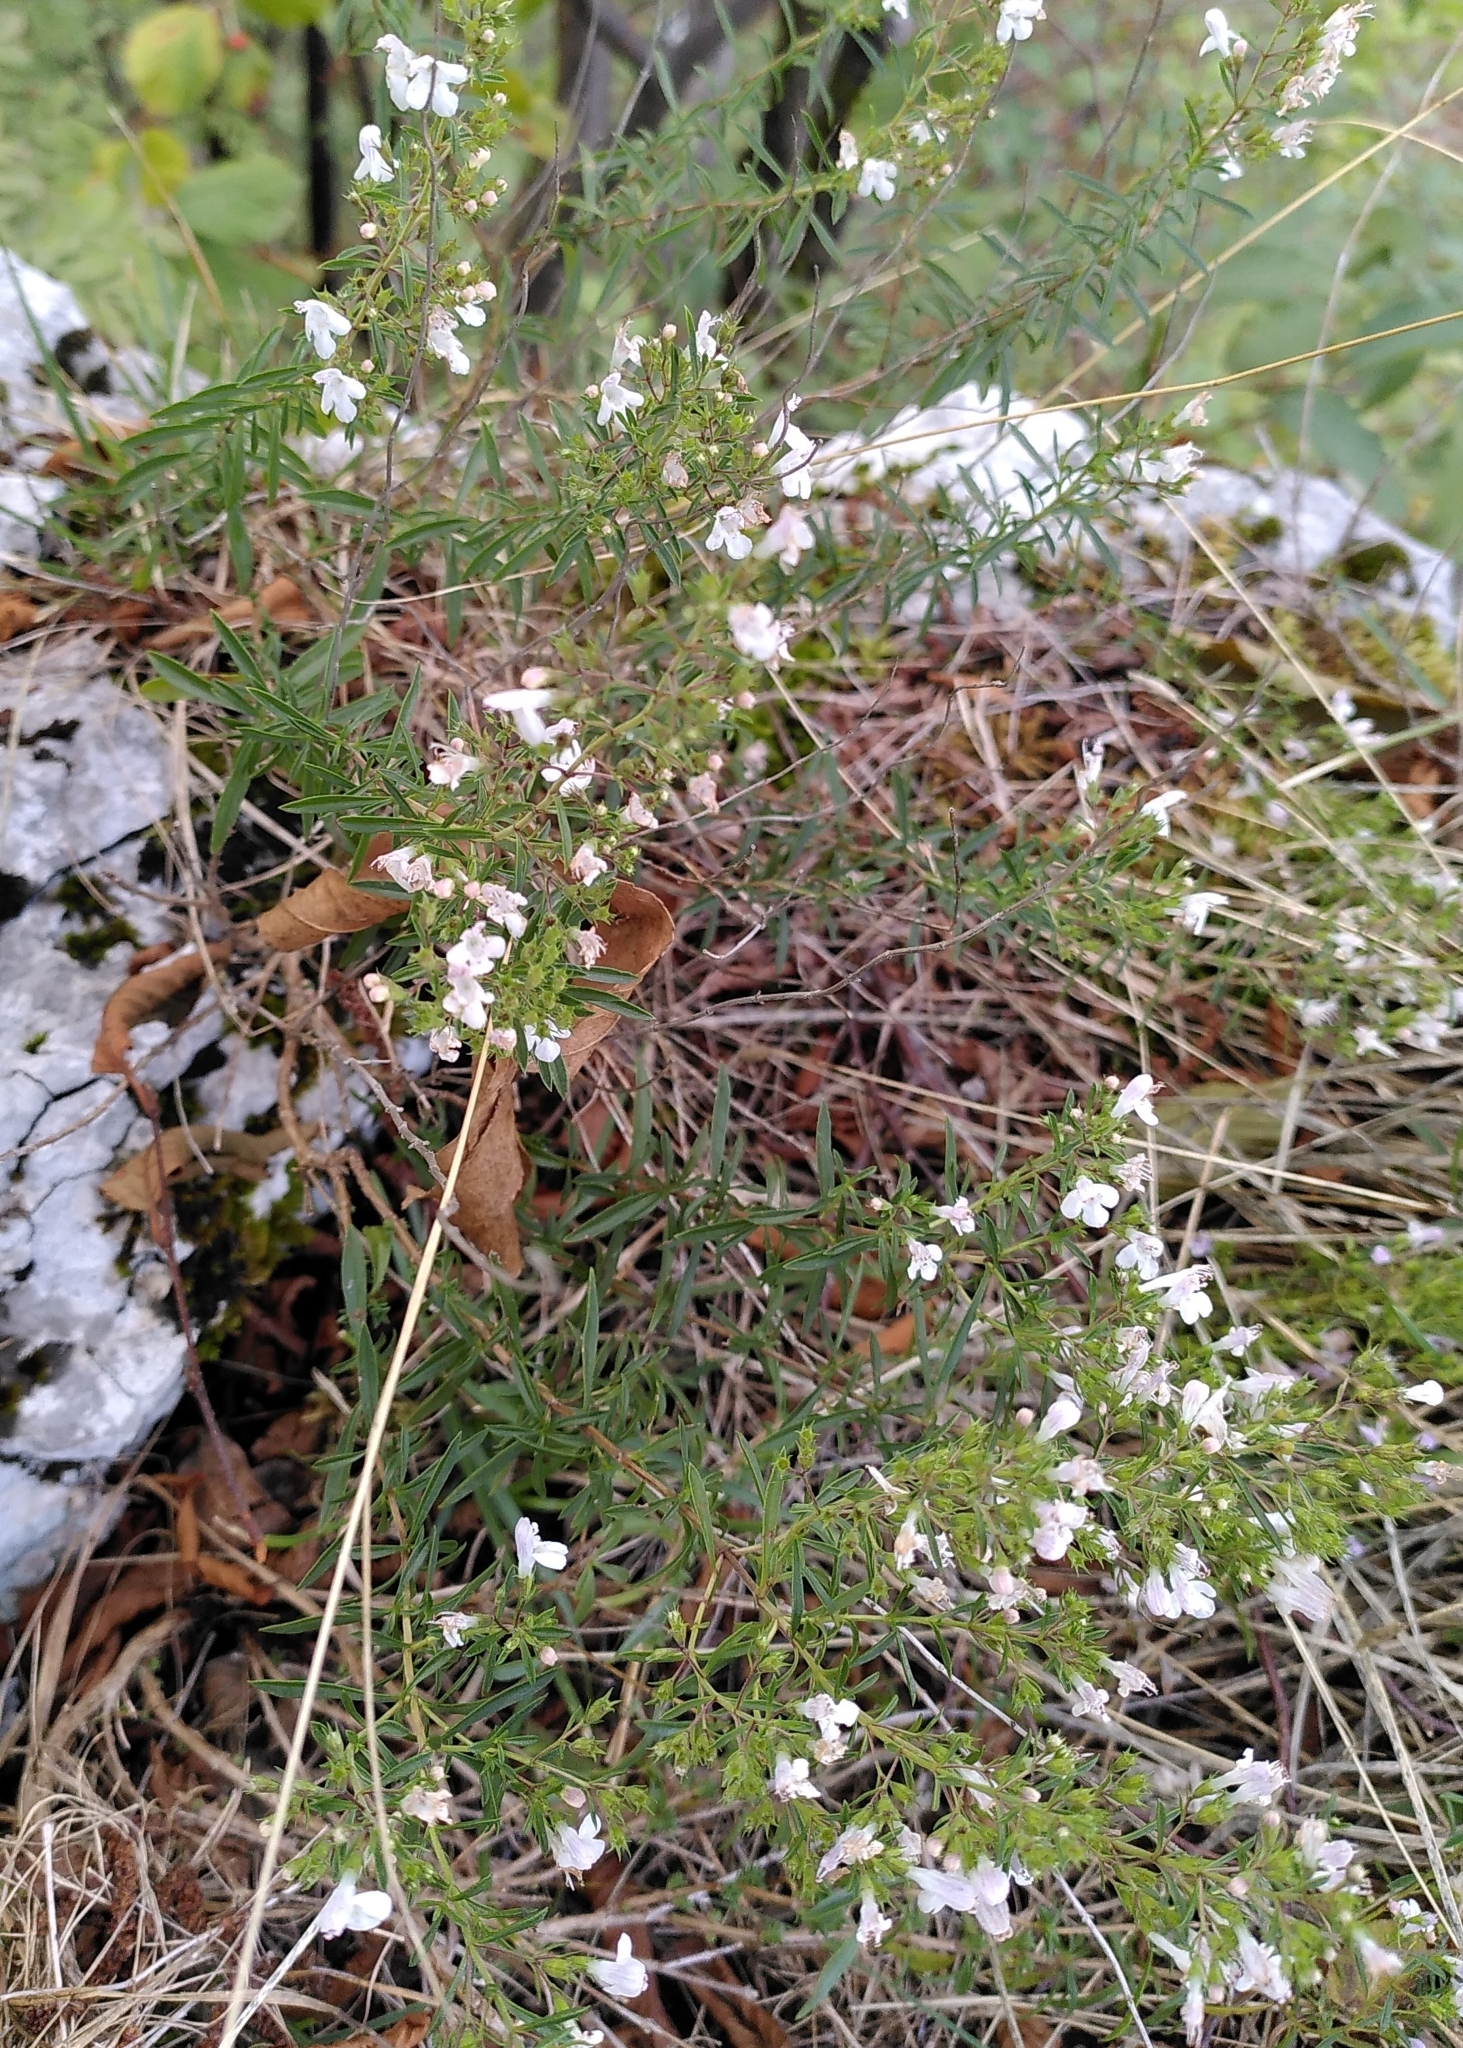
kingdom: Plantae
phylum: Tracheophyta
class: Magnoliopsida
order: Lamiales
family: Lamiaceae
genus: Satureja
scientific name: Satureja montana
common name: Winter savory
